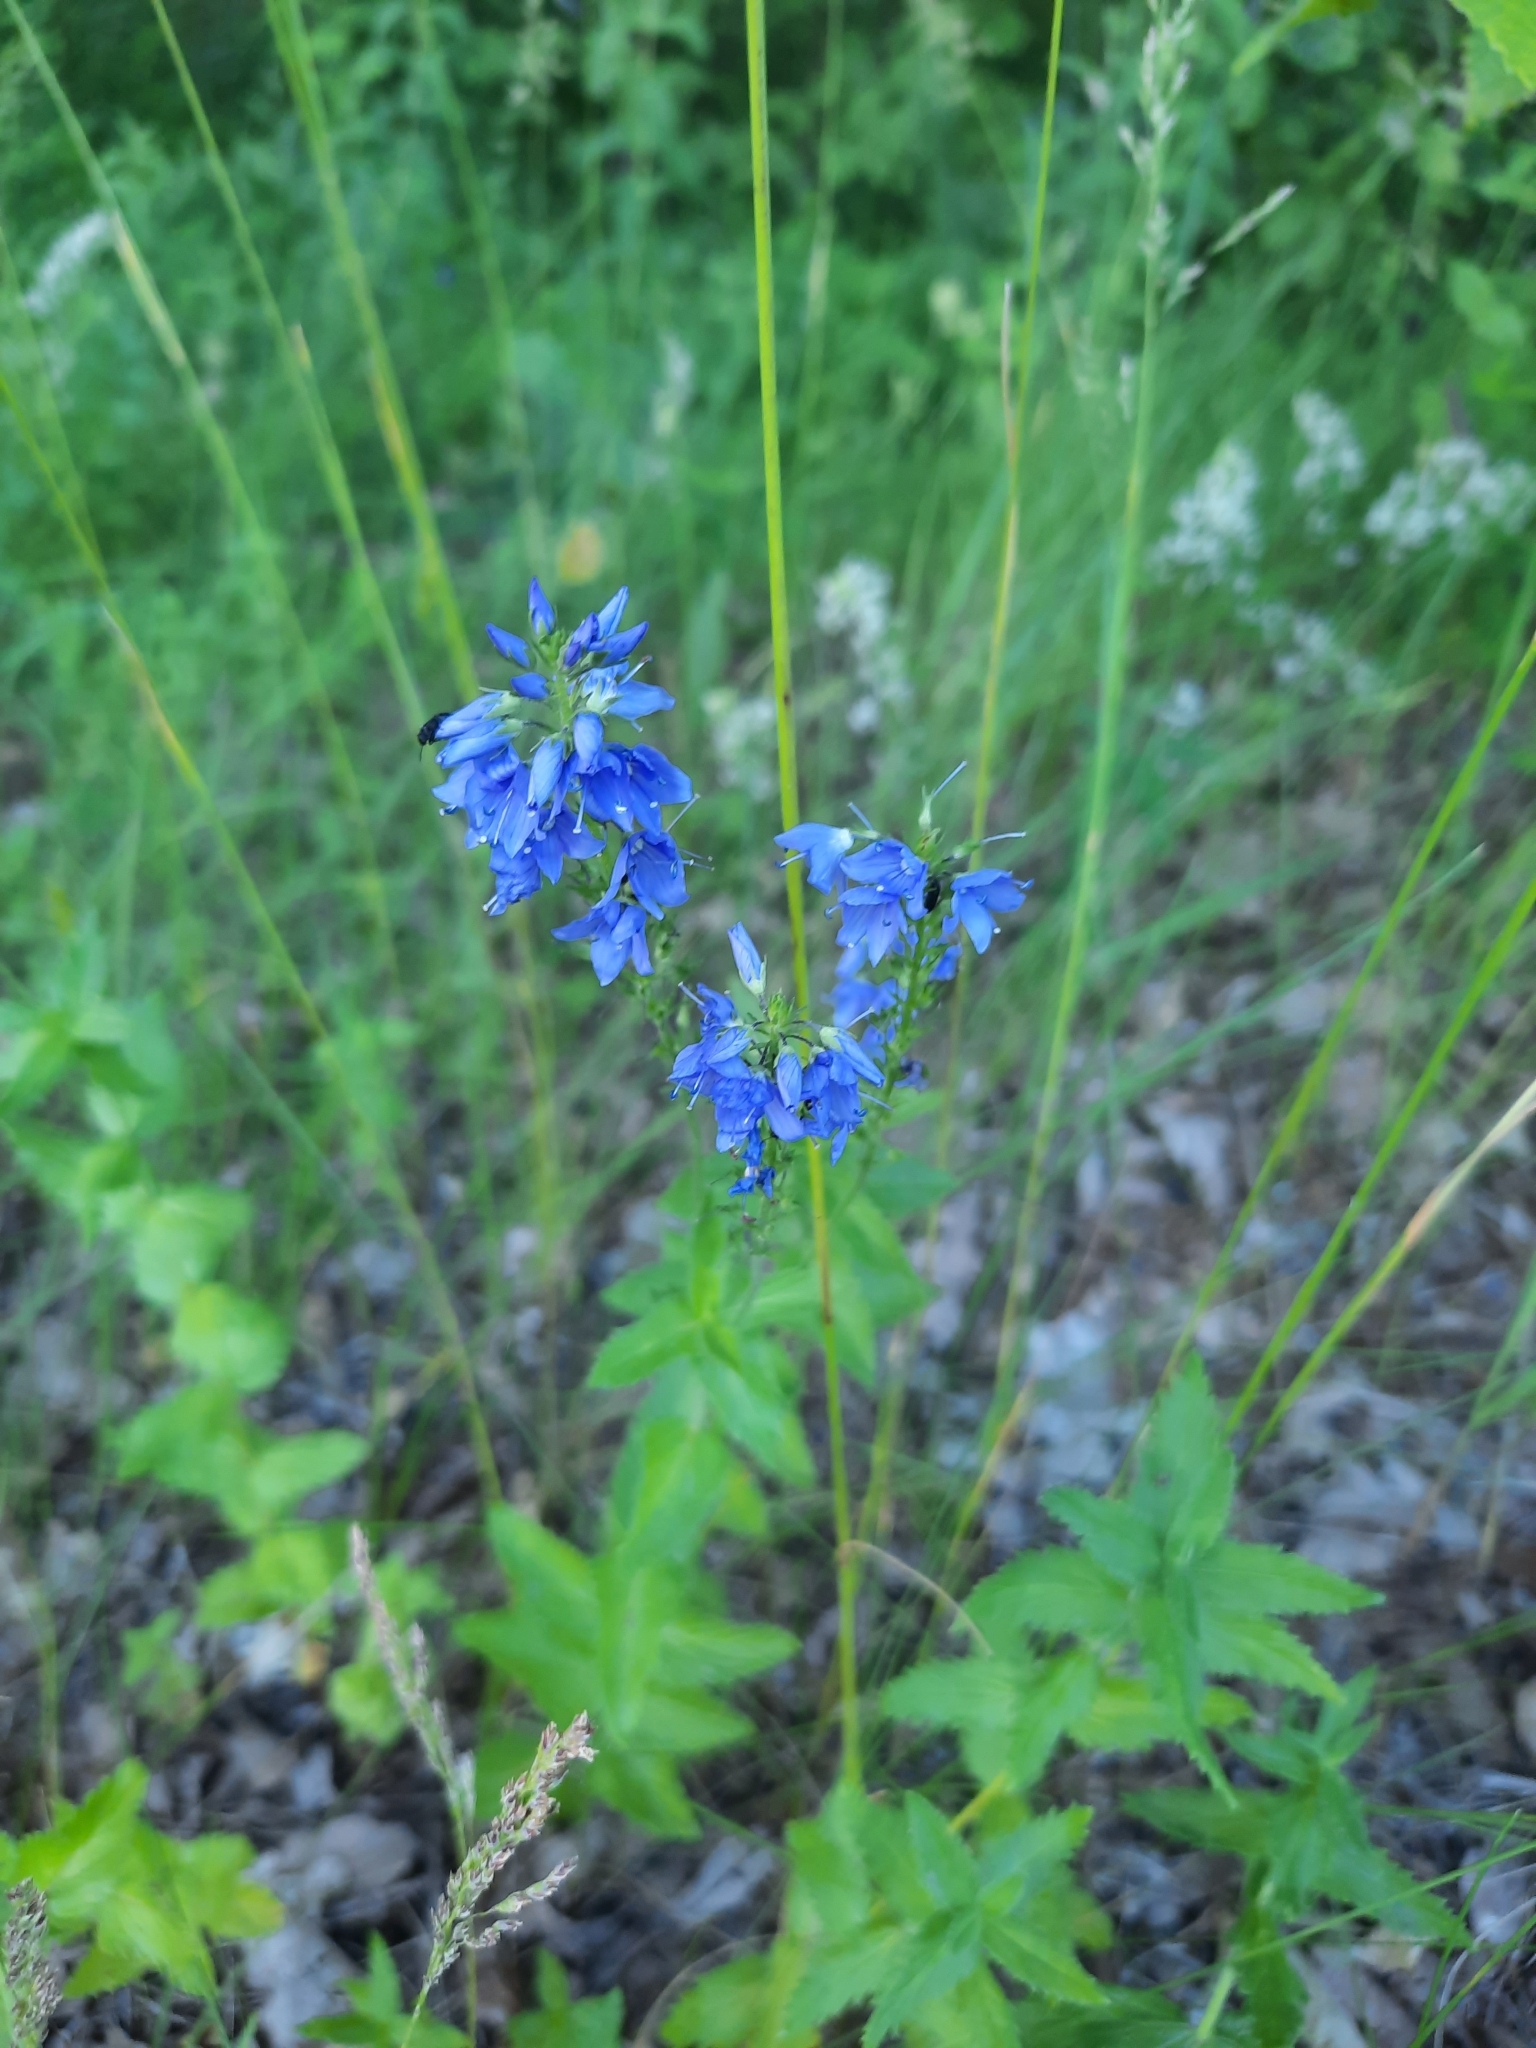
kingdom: Plantae
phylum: Tracheophyta
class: Magnoliopsida
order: Lamiales
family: Plantaginaceae
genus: Veronica
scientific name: Veronica teucrium
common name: Large speedwell
